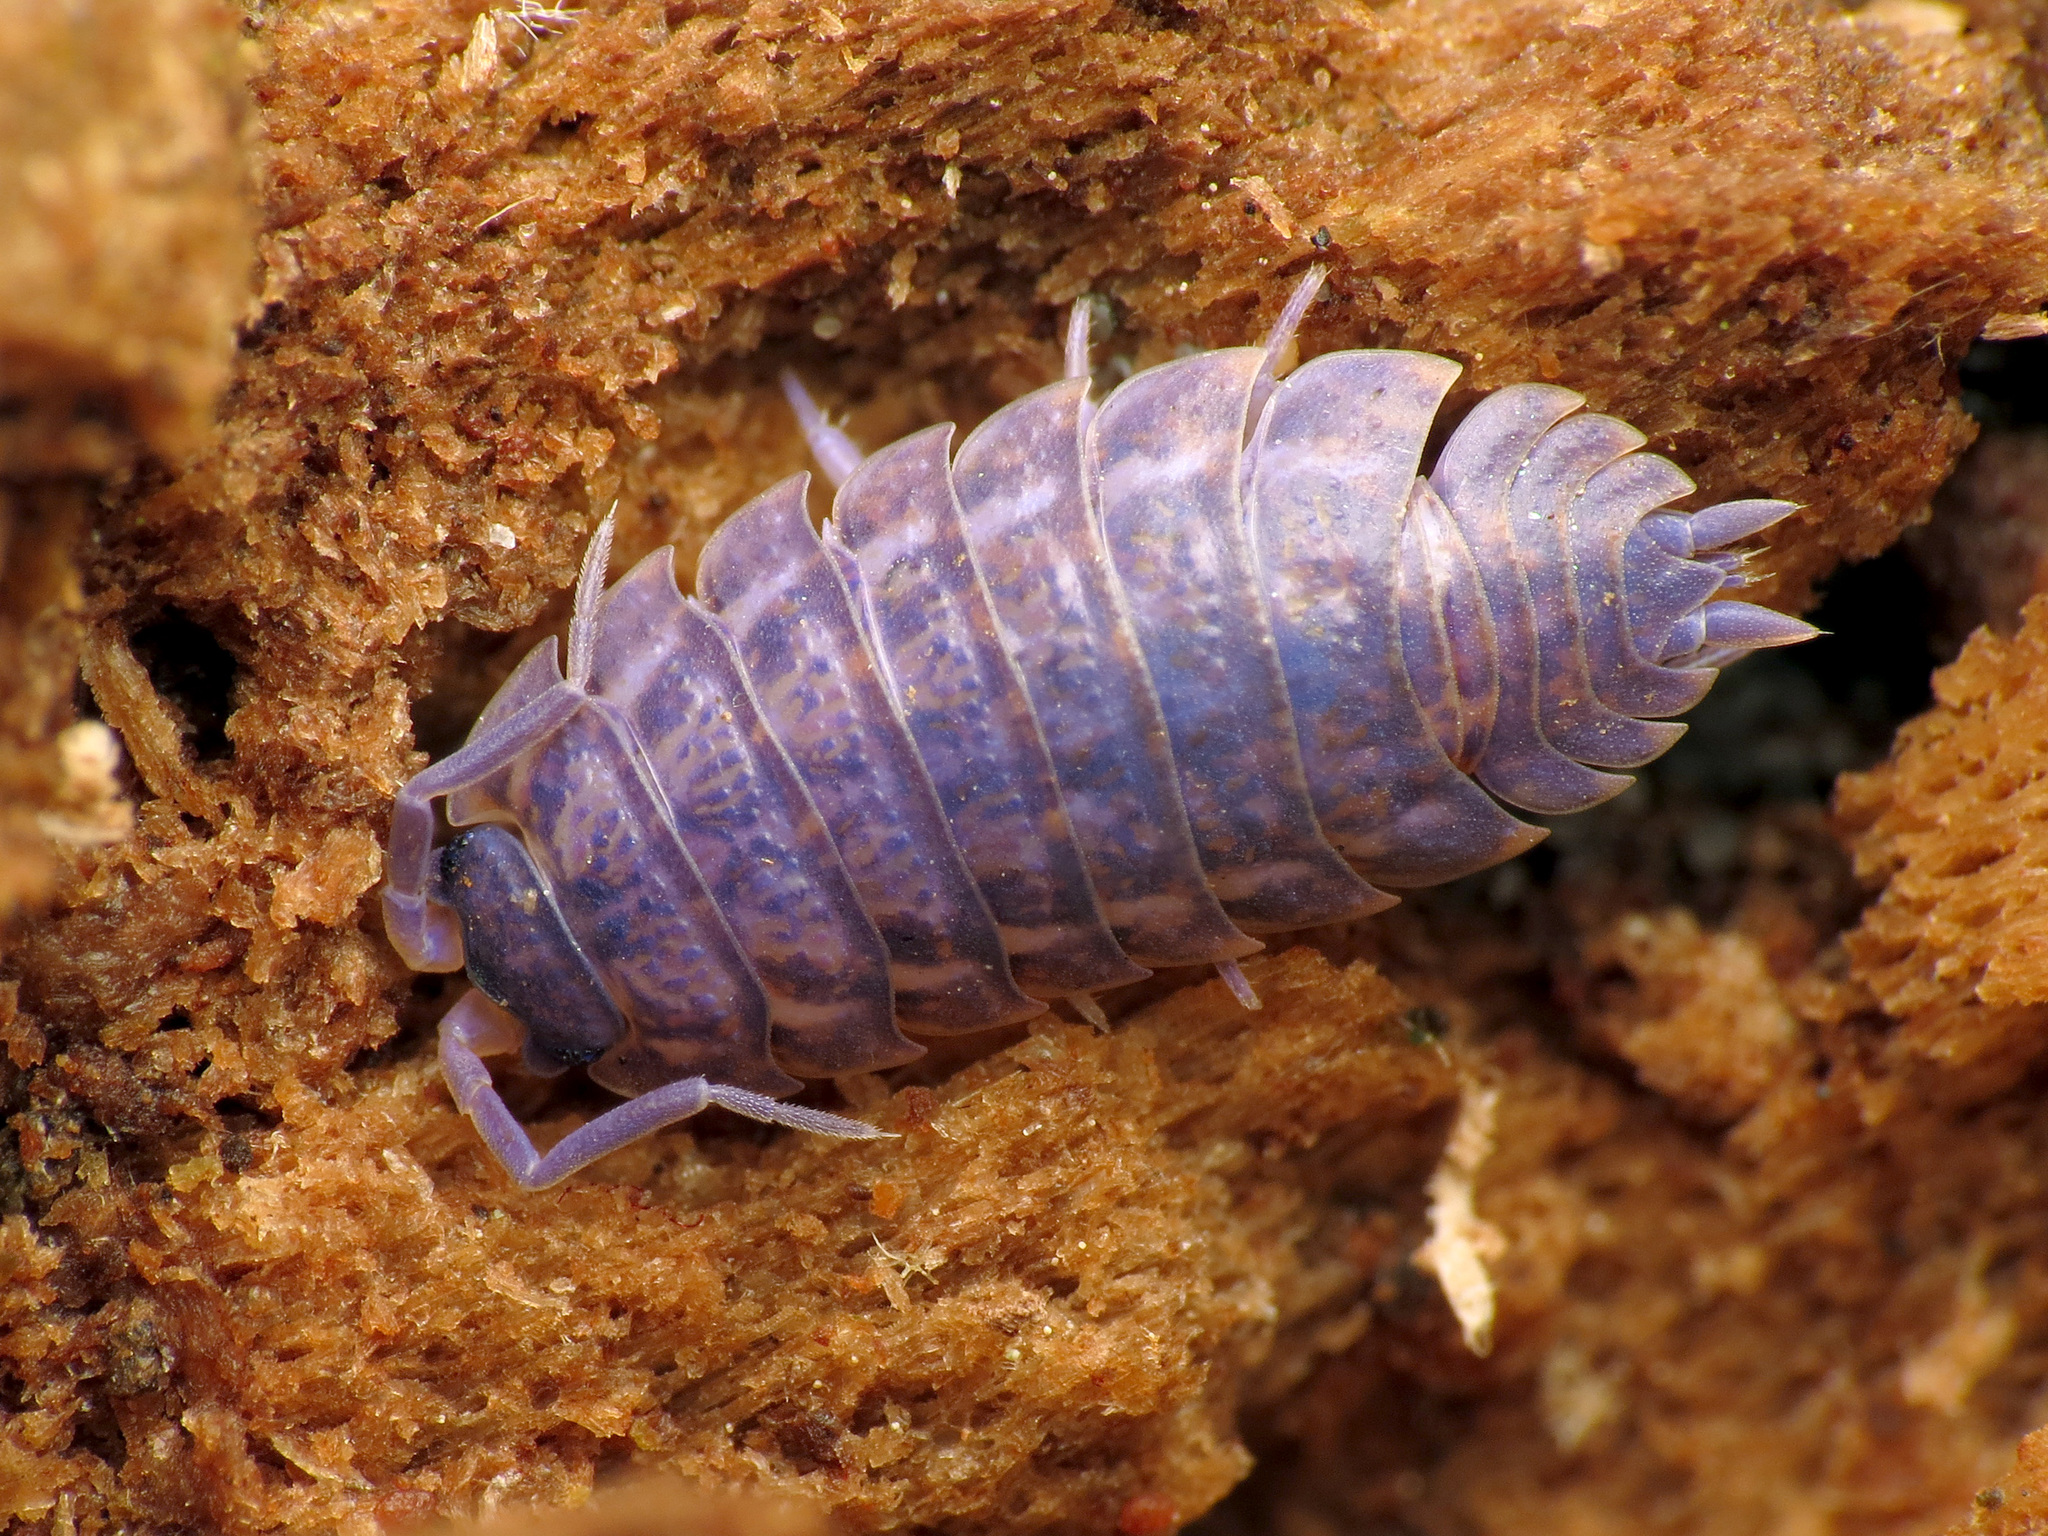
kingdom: Viruses
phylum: Nucleocytoviricota
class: Megaviricetes
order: Pimascovirales
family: Iridoviridae
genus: Iridovirus
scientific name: Iridovirus Invertebrate iridescent virus 31
